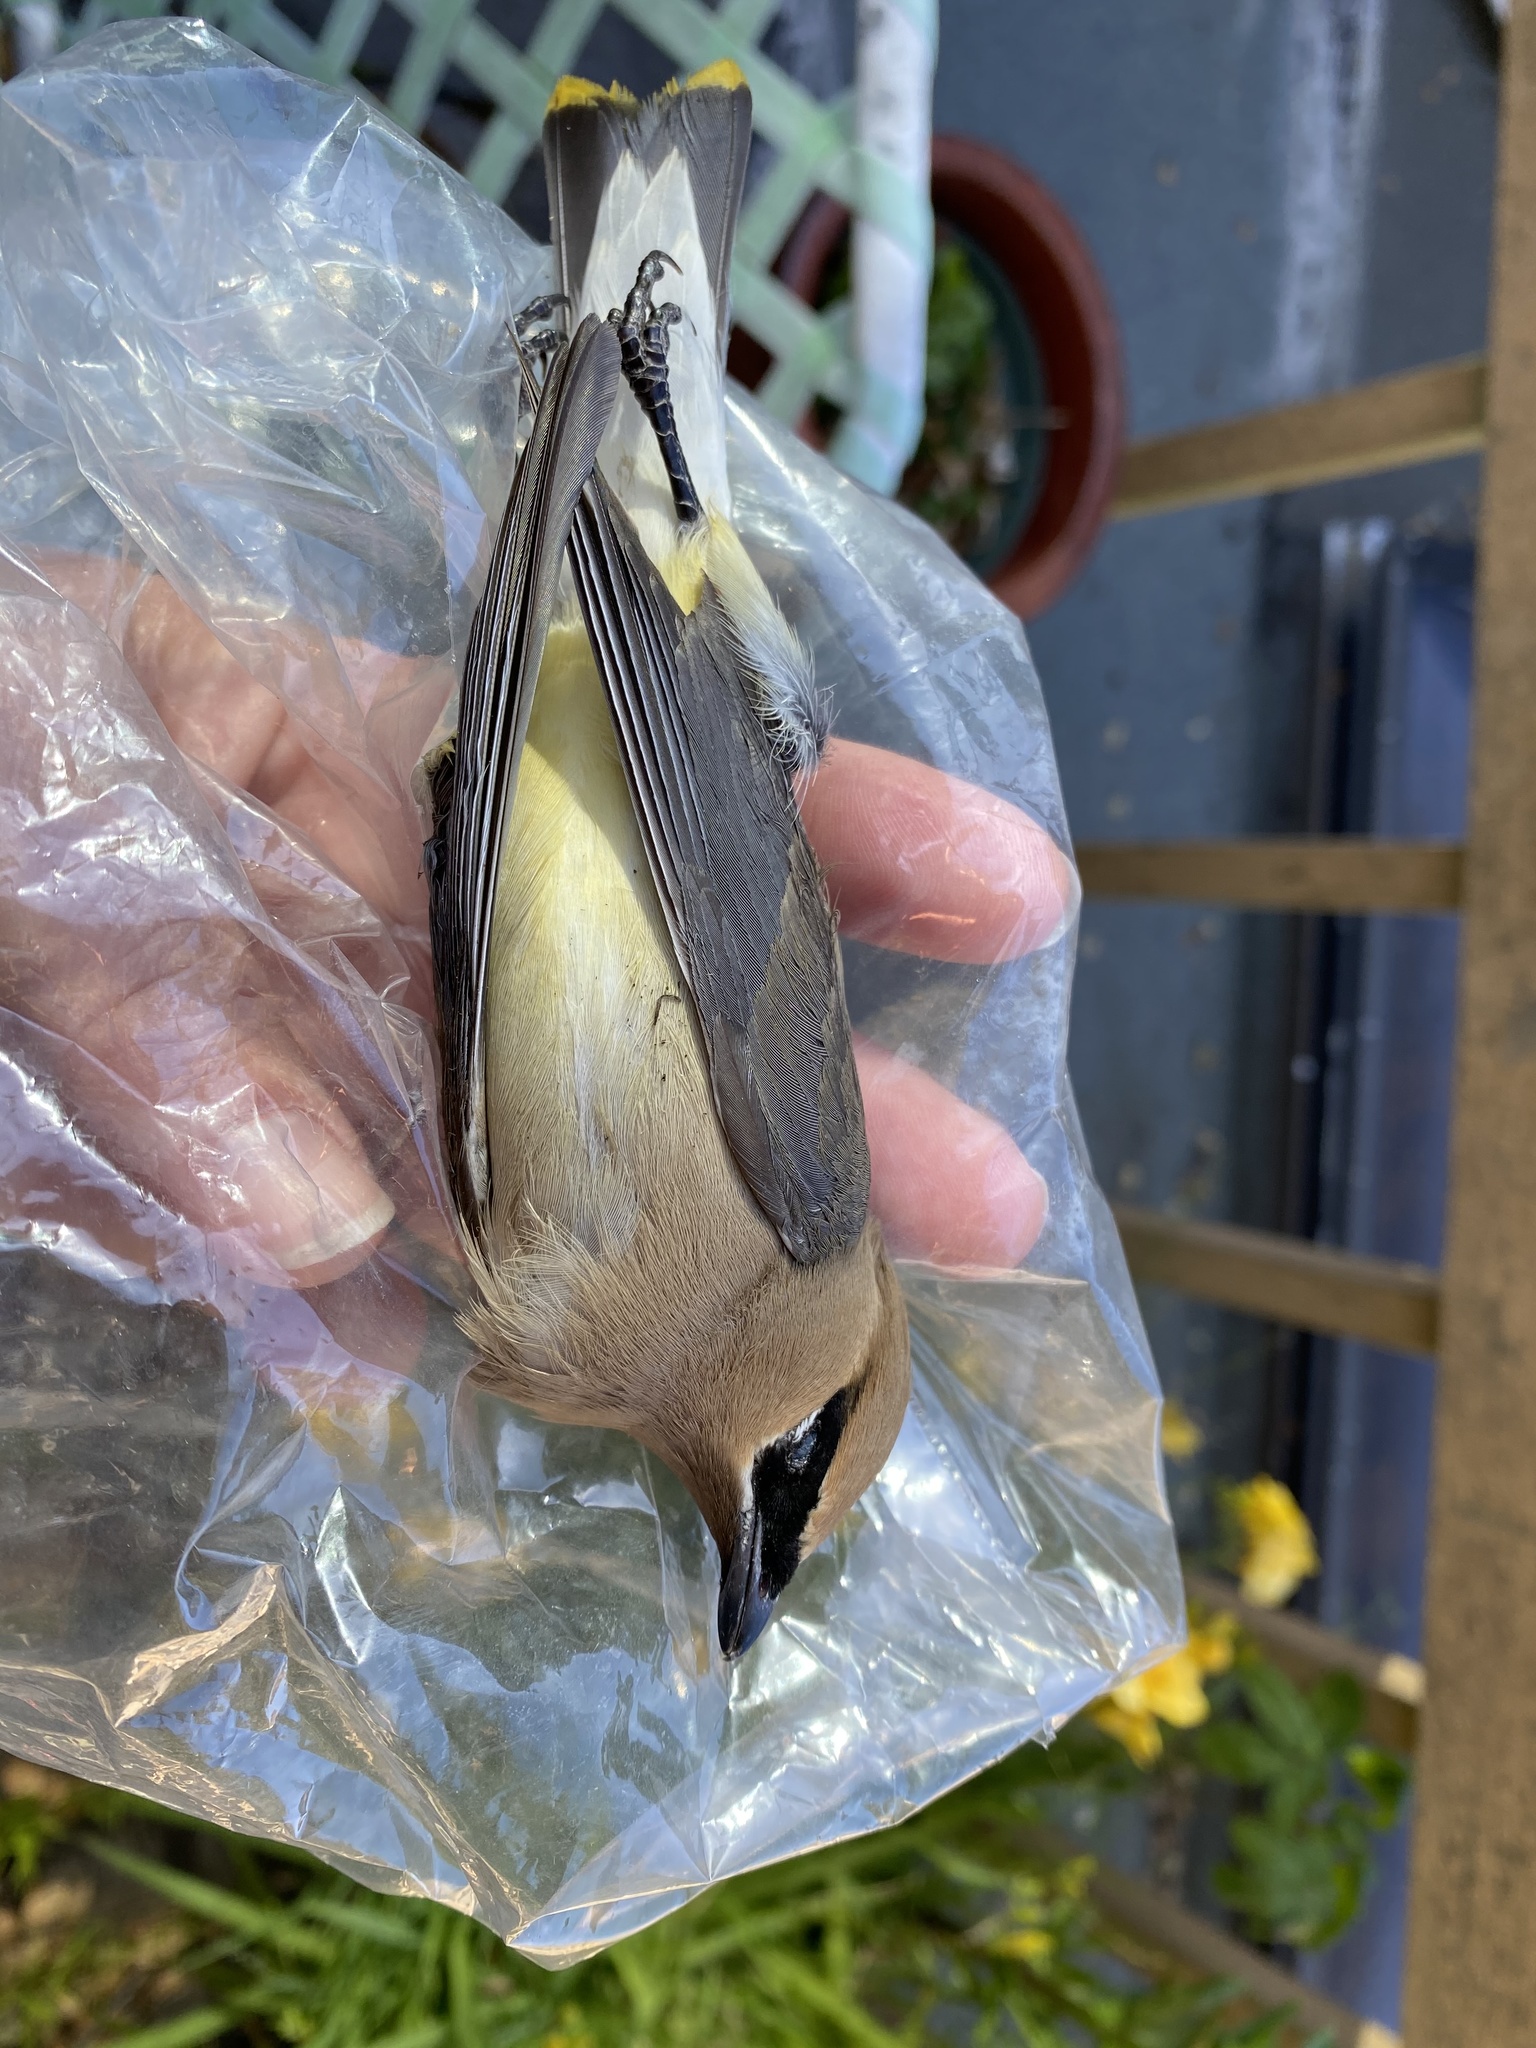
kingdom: Animalia
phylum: Chordata
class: Aves
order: Passeriformes
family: Bombycillidae
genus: Bombycilla
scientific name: Bombycilla cedrorum
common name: Cedar waxwing
